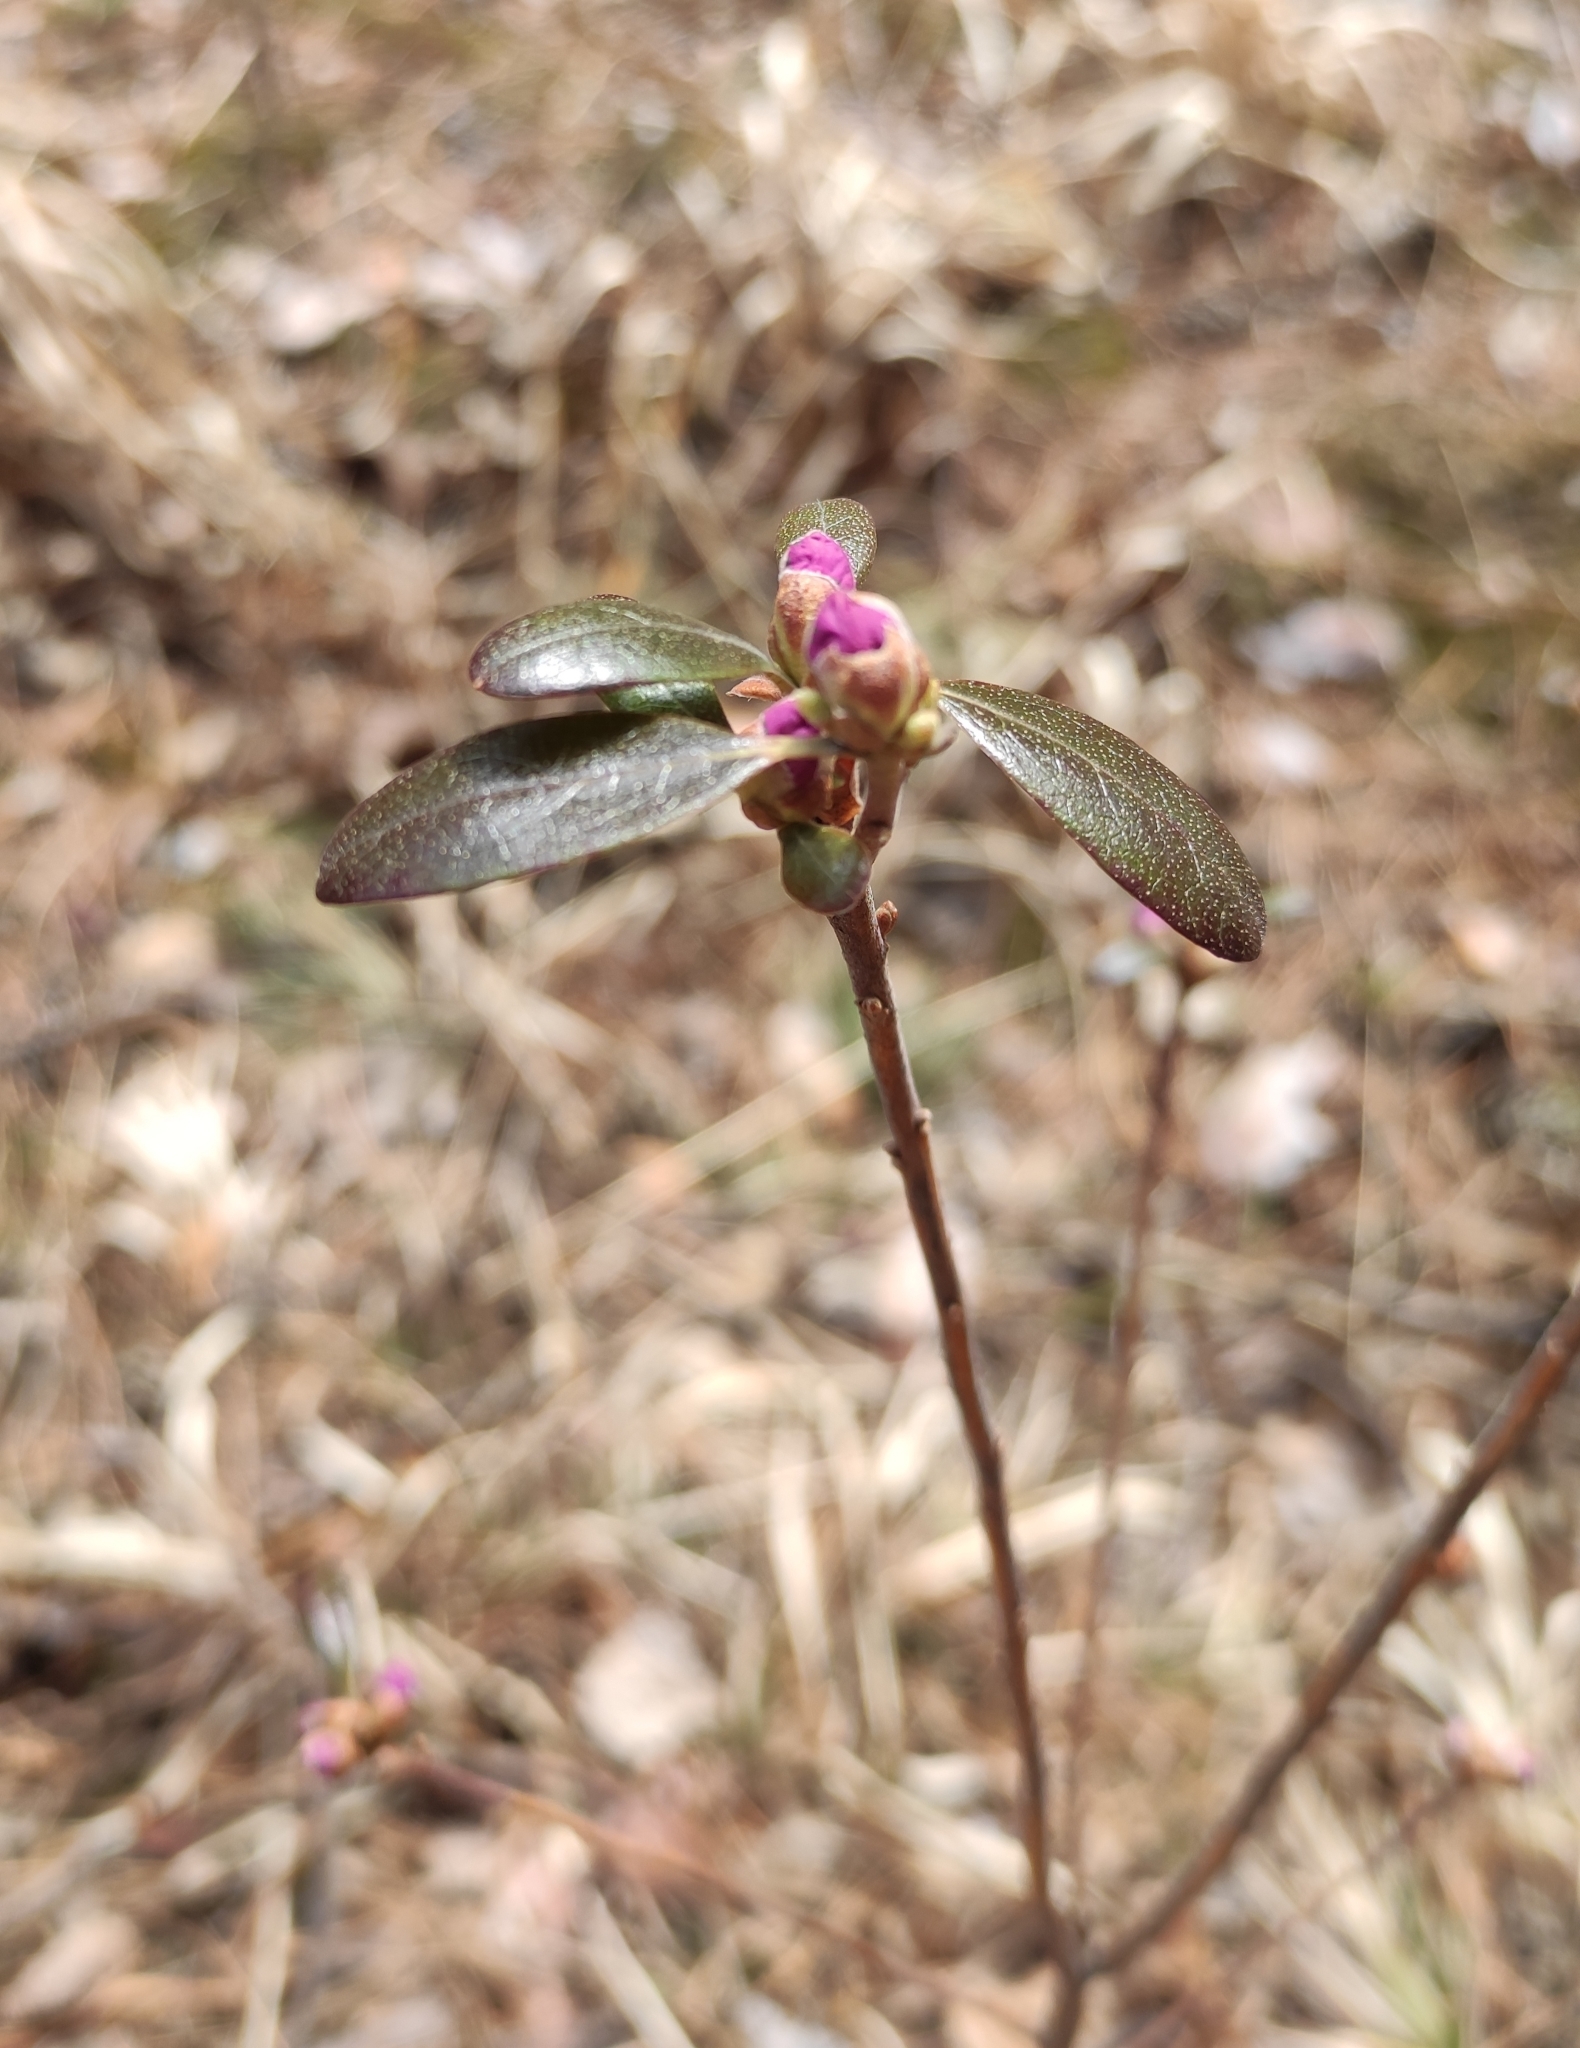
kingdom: Plantae
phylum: Tracheophyta
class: Magnoliopsida
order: Ericales
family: Ericaceae
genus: Rhododendron
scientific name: Rhododendron dauricum
